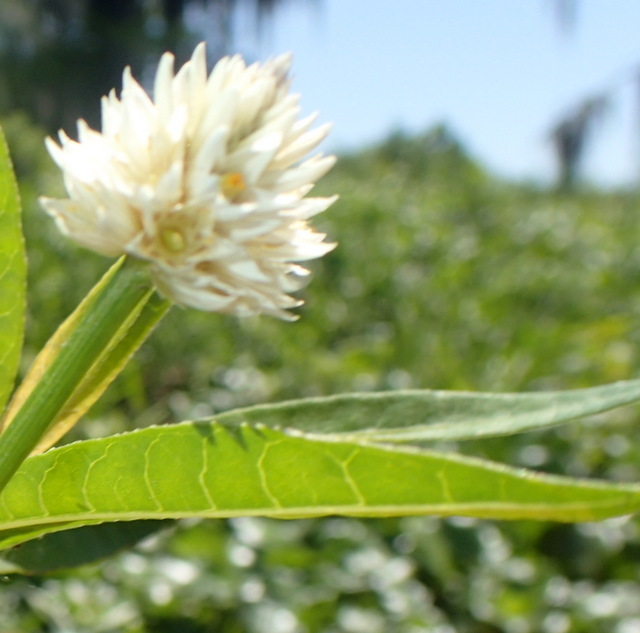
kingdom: Plantae
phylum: Tracheophyta
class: Magnoliopsida
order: Caryophyllales
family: Amaranthaceae
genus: Alternanthera
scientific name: Alternanthera philoxeroides
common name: Alligatorweed
